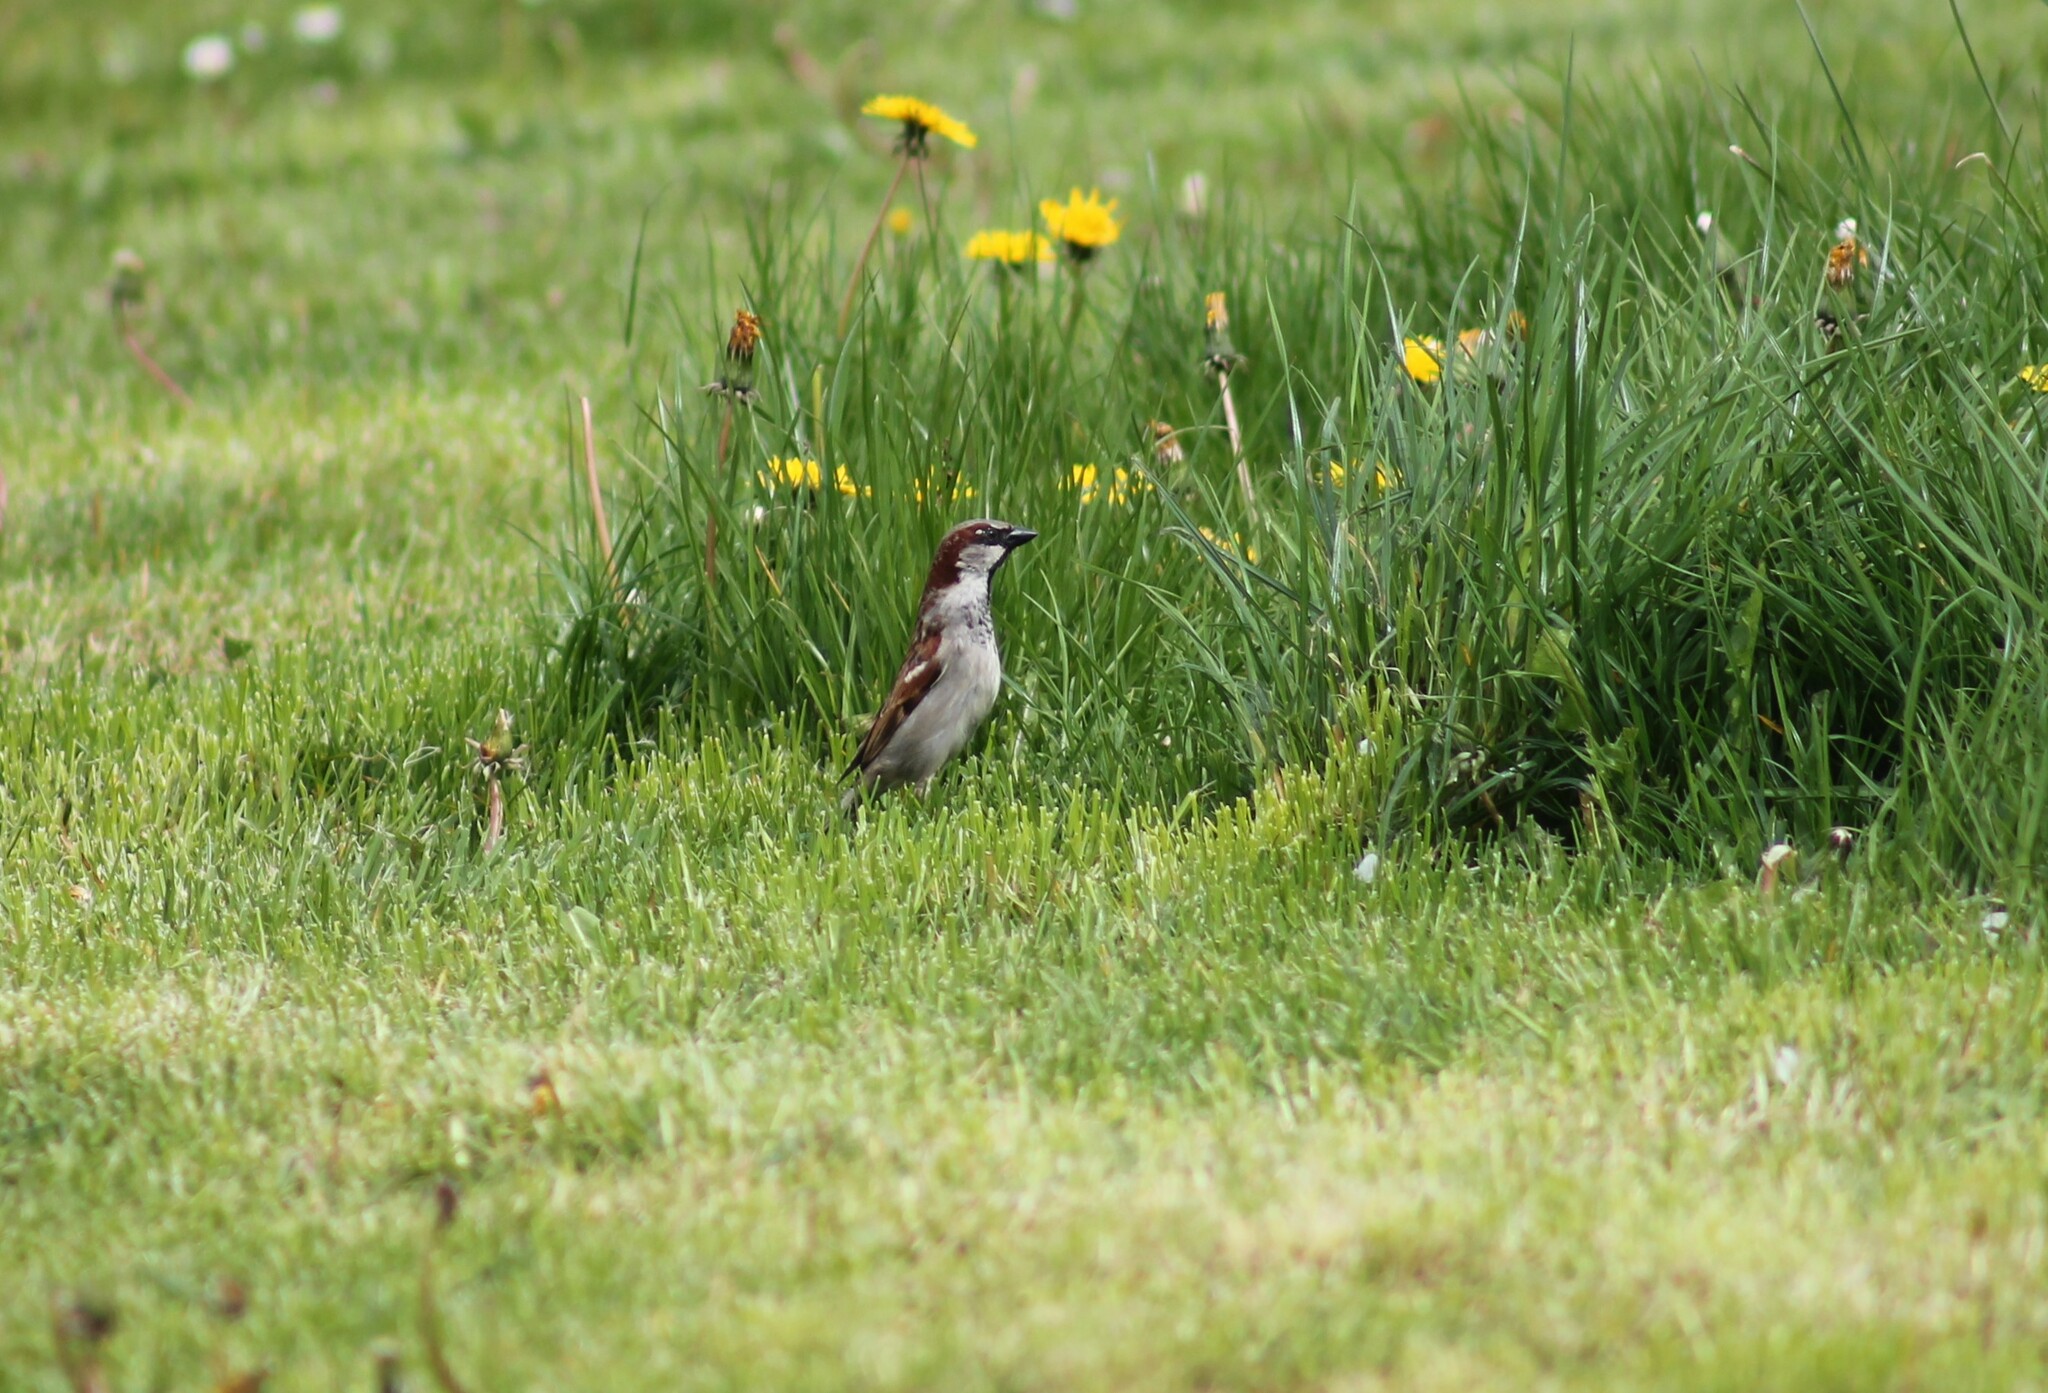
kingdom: Animalia
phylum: Chordata
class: Aves
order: Passeriformes
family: Passeridae
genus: Passer
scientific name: Passer domesticus
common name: House sparrow
